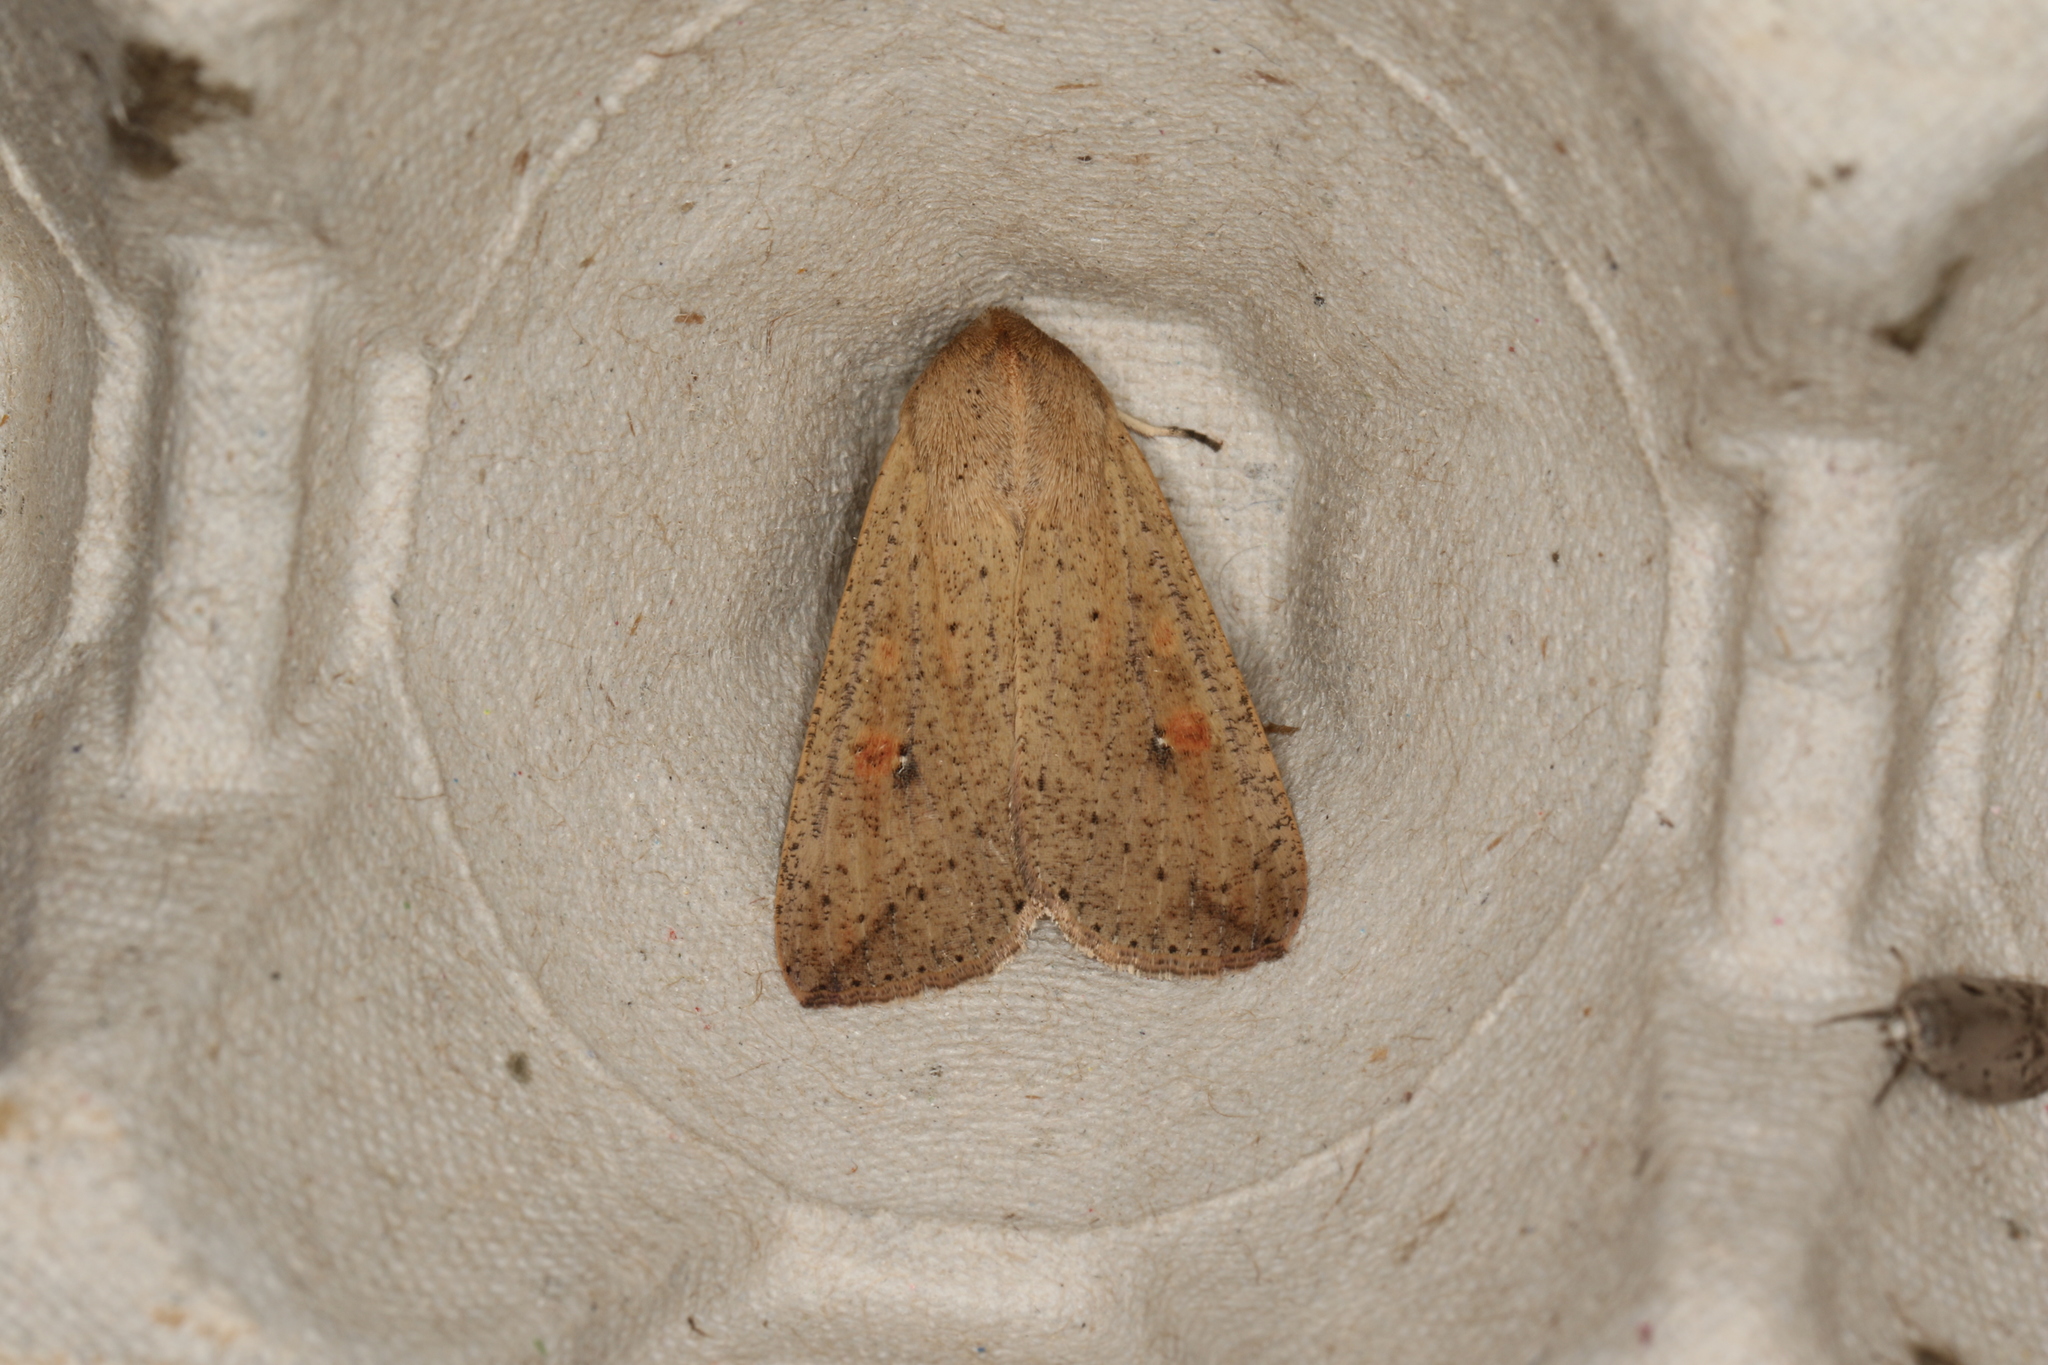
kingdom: Animalia
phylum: Arthropoda
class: Insecta
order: Lepidoptera
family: Noctuidae
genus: Mythimna
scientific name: Mythimna convecta
